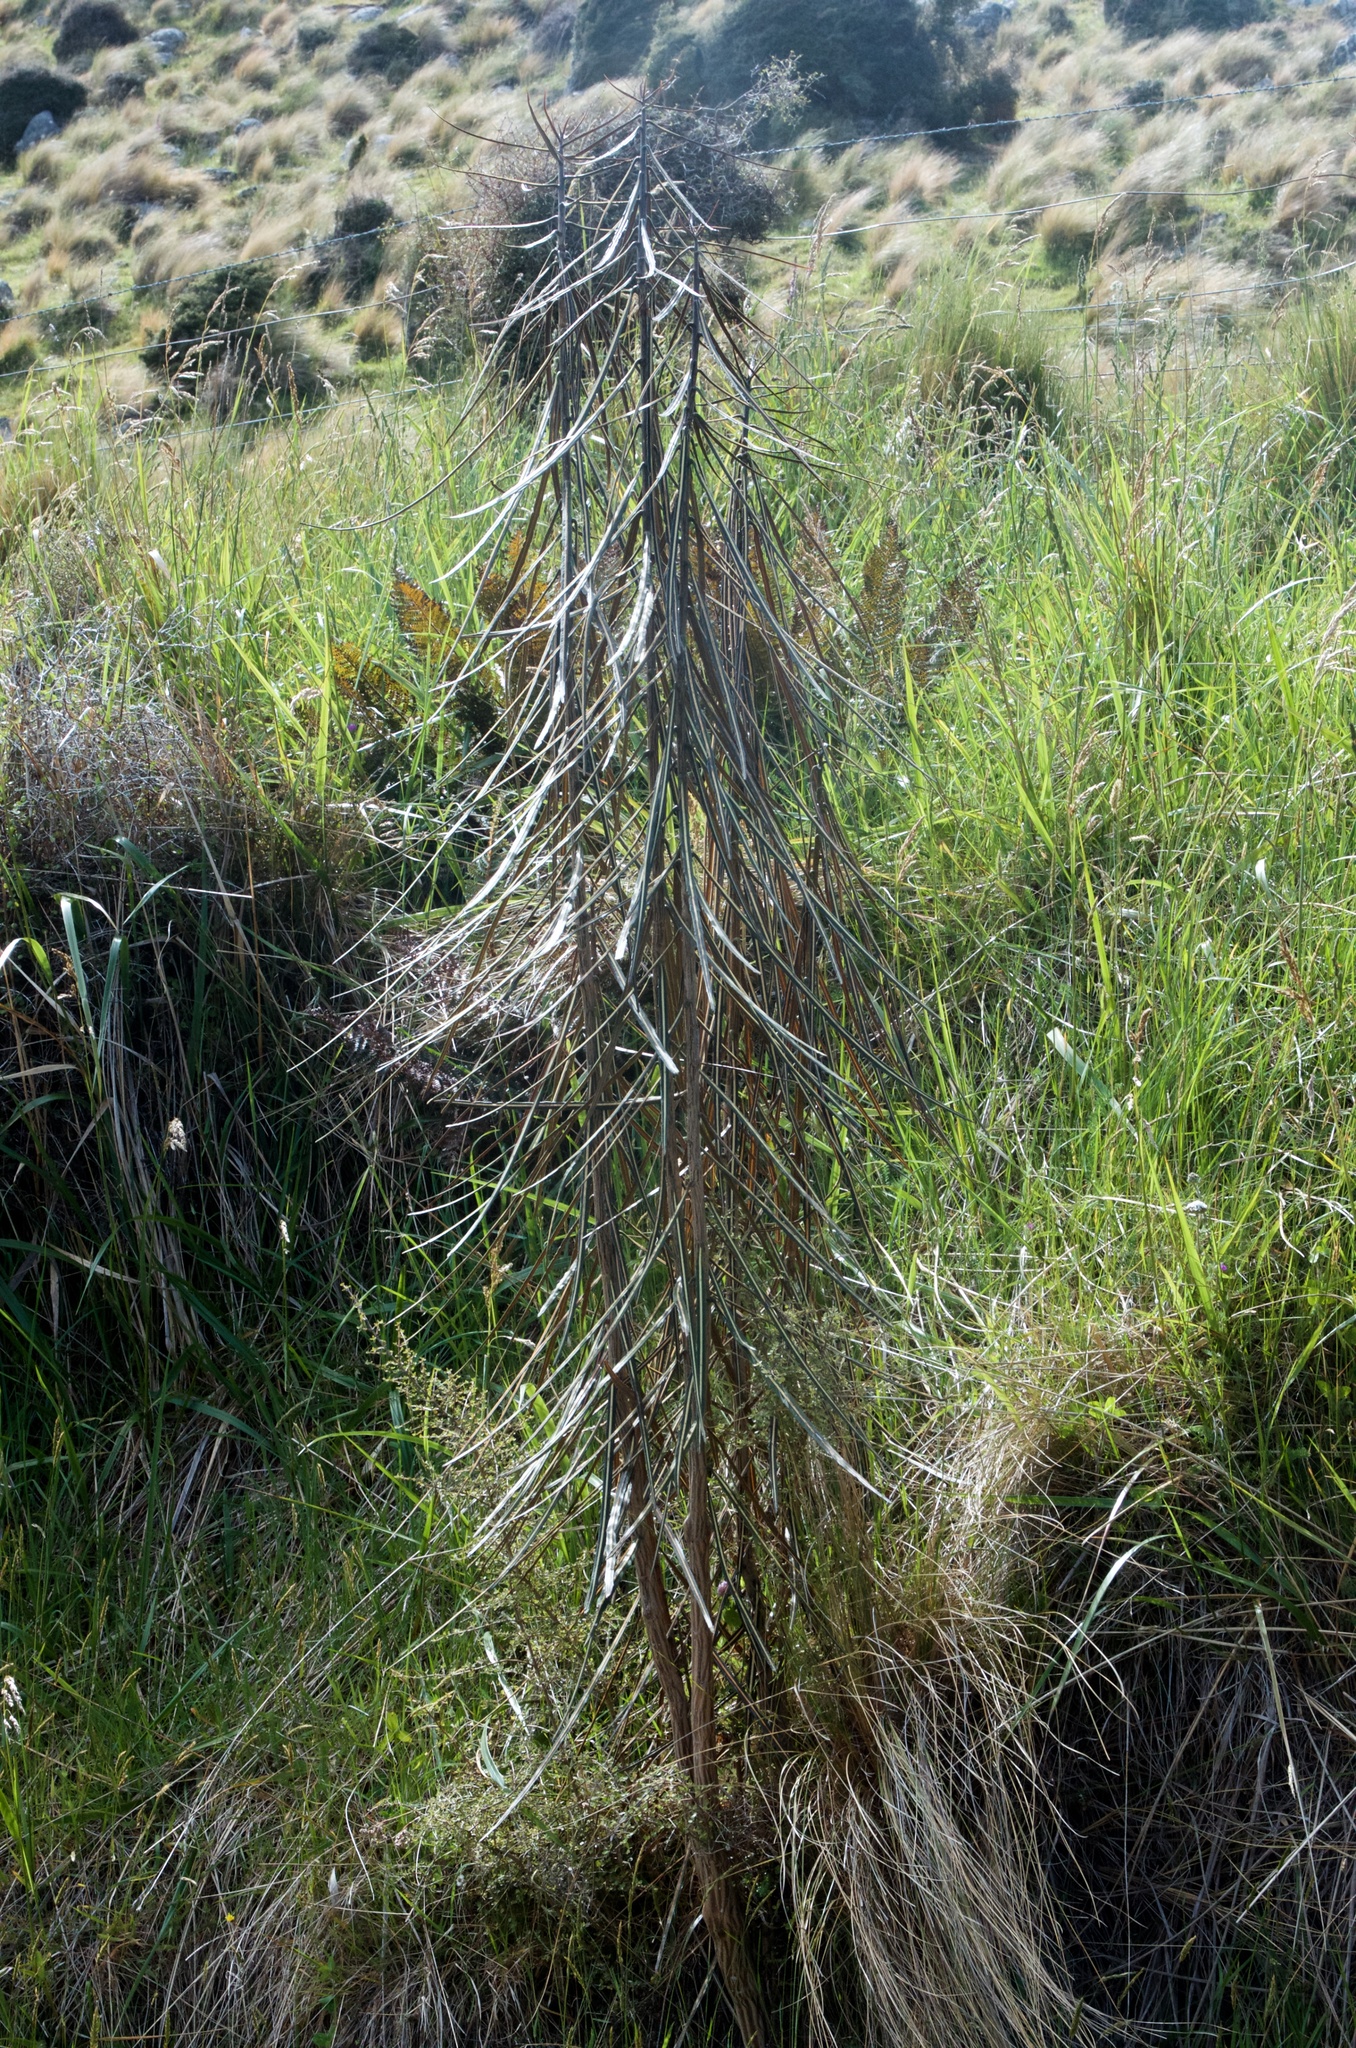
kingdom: Plantae
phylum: Tracheophyta
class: Magnoliopsida
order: Apiales
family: Araliaceae
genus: Pseudopanax
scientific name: Pseudopanax crassifolius
